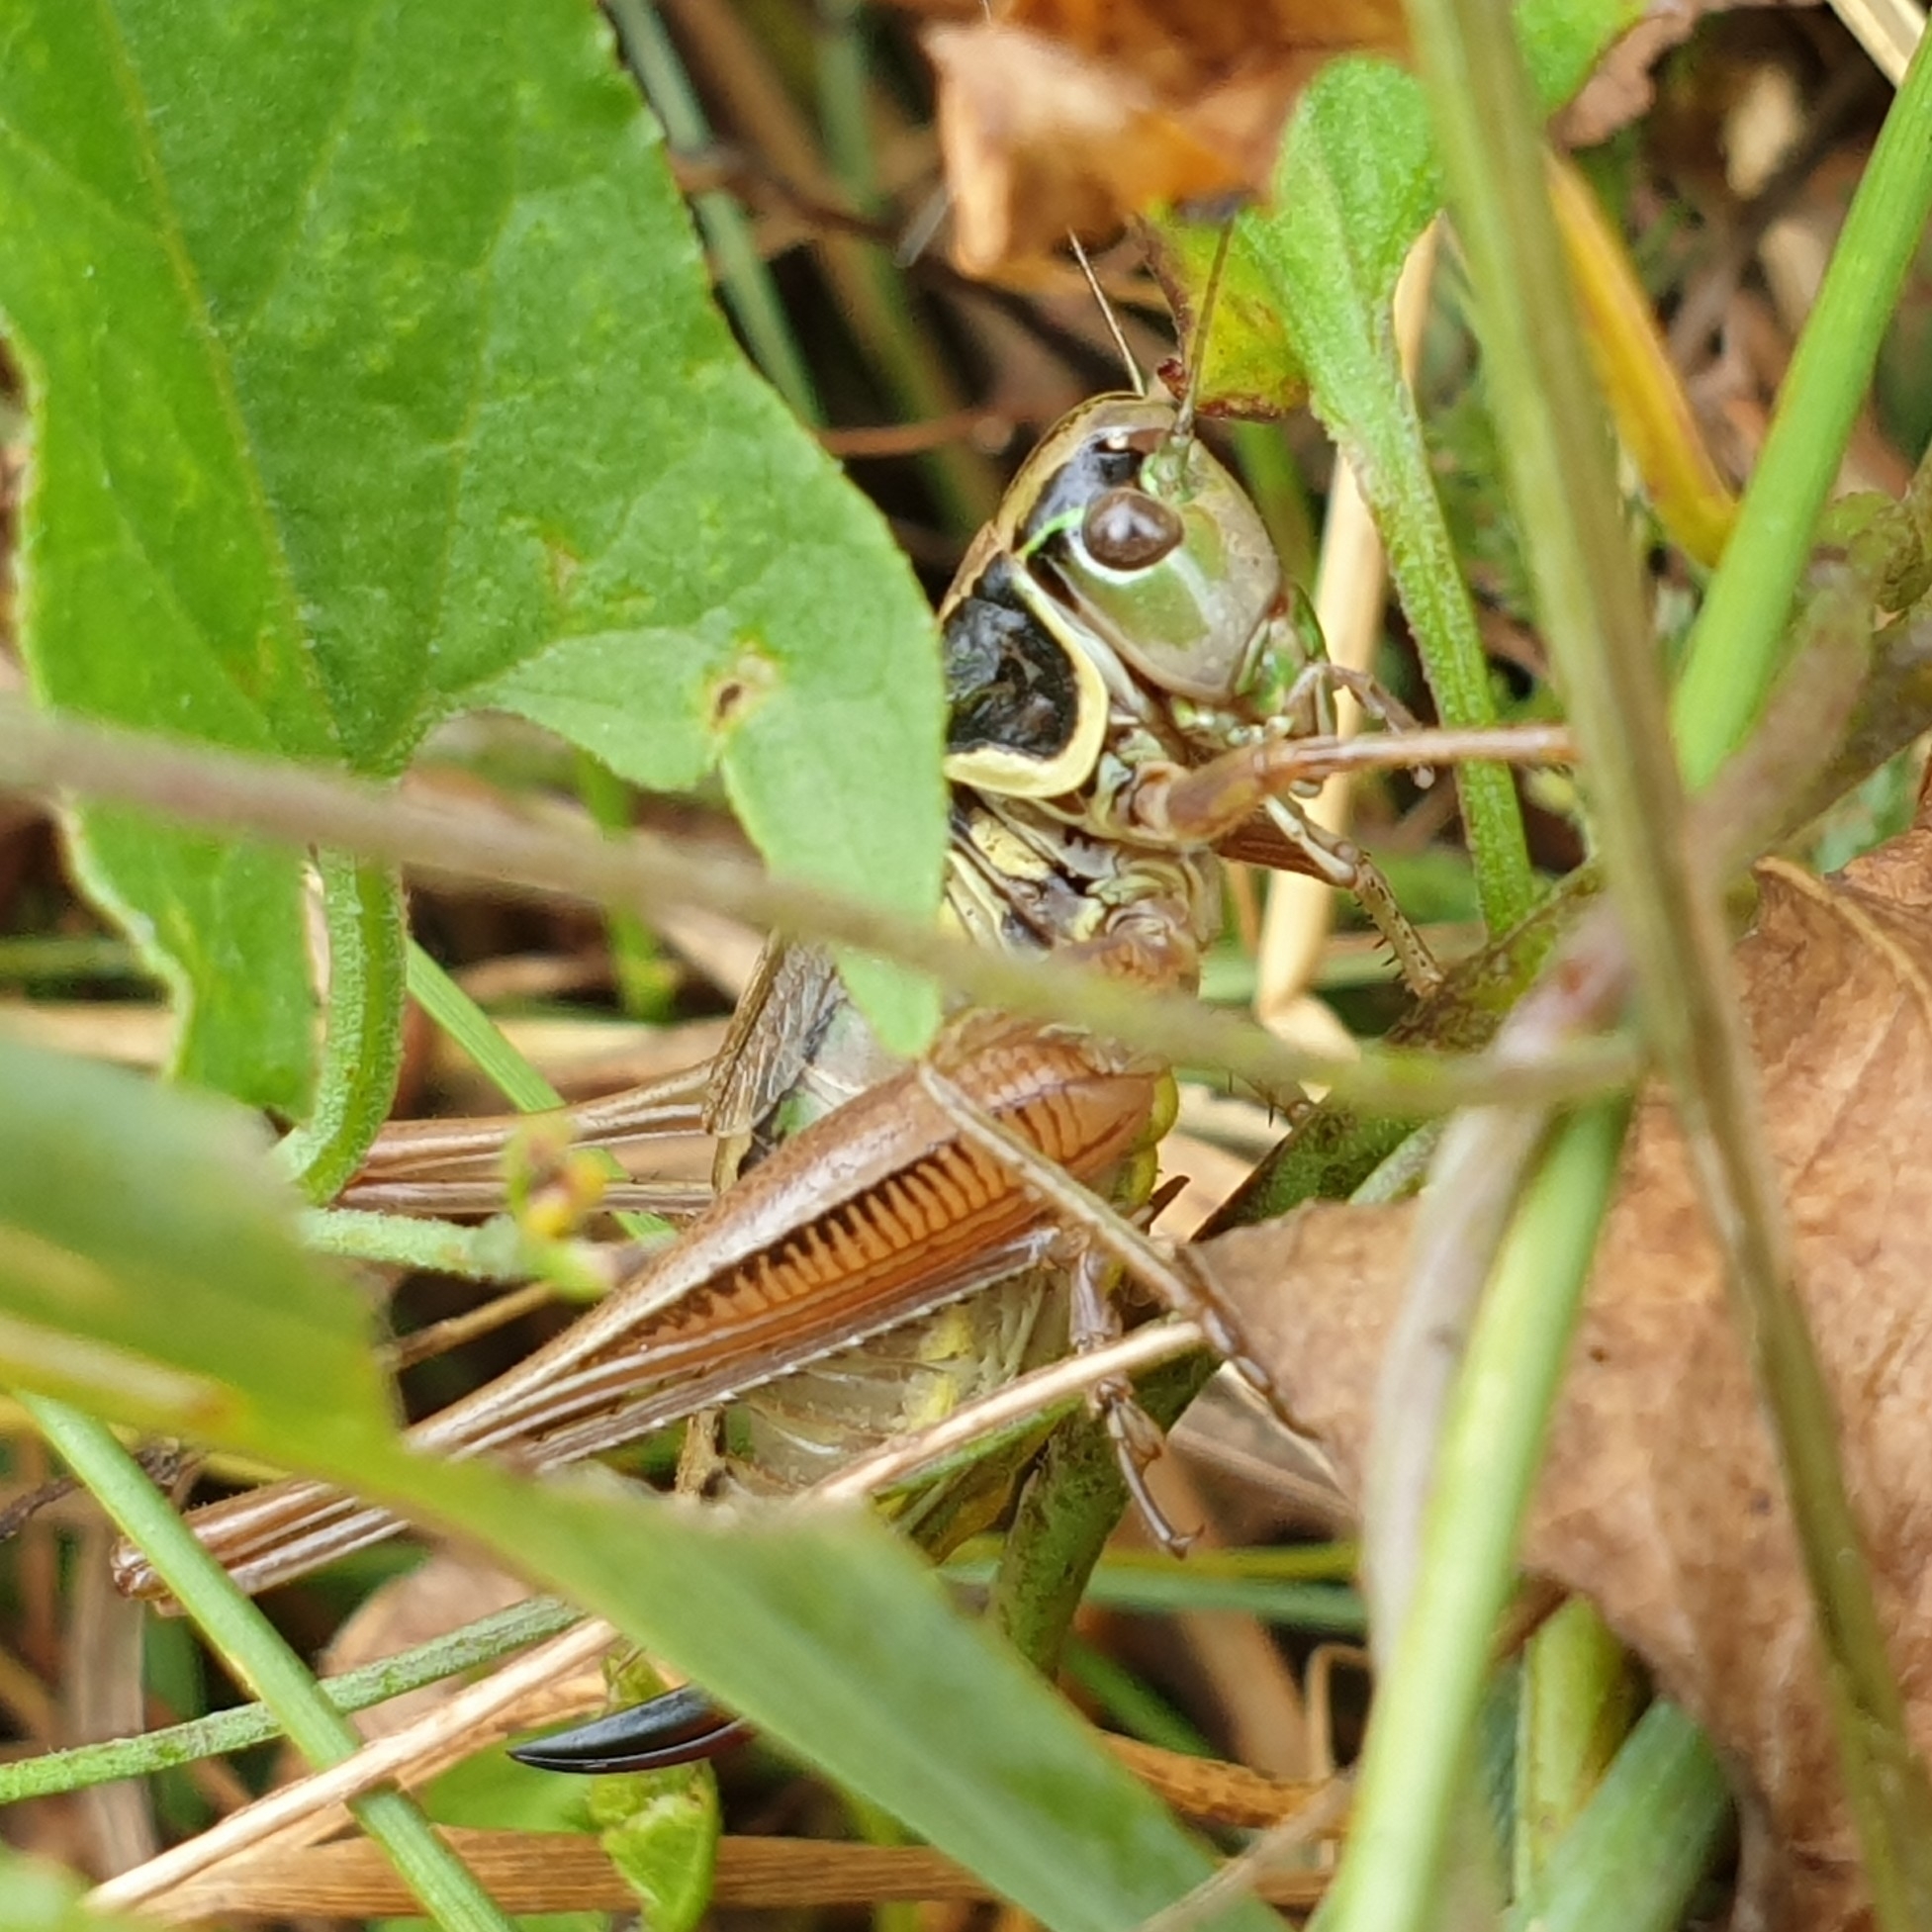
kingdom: Animalia
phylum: Arthropoda
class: Insecta
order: Orthoptera
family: Tettigoniidae
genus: Roeseliana
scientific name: Roeseliana roeselii
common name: Roesel's bush cricket
